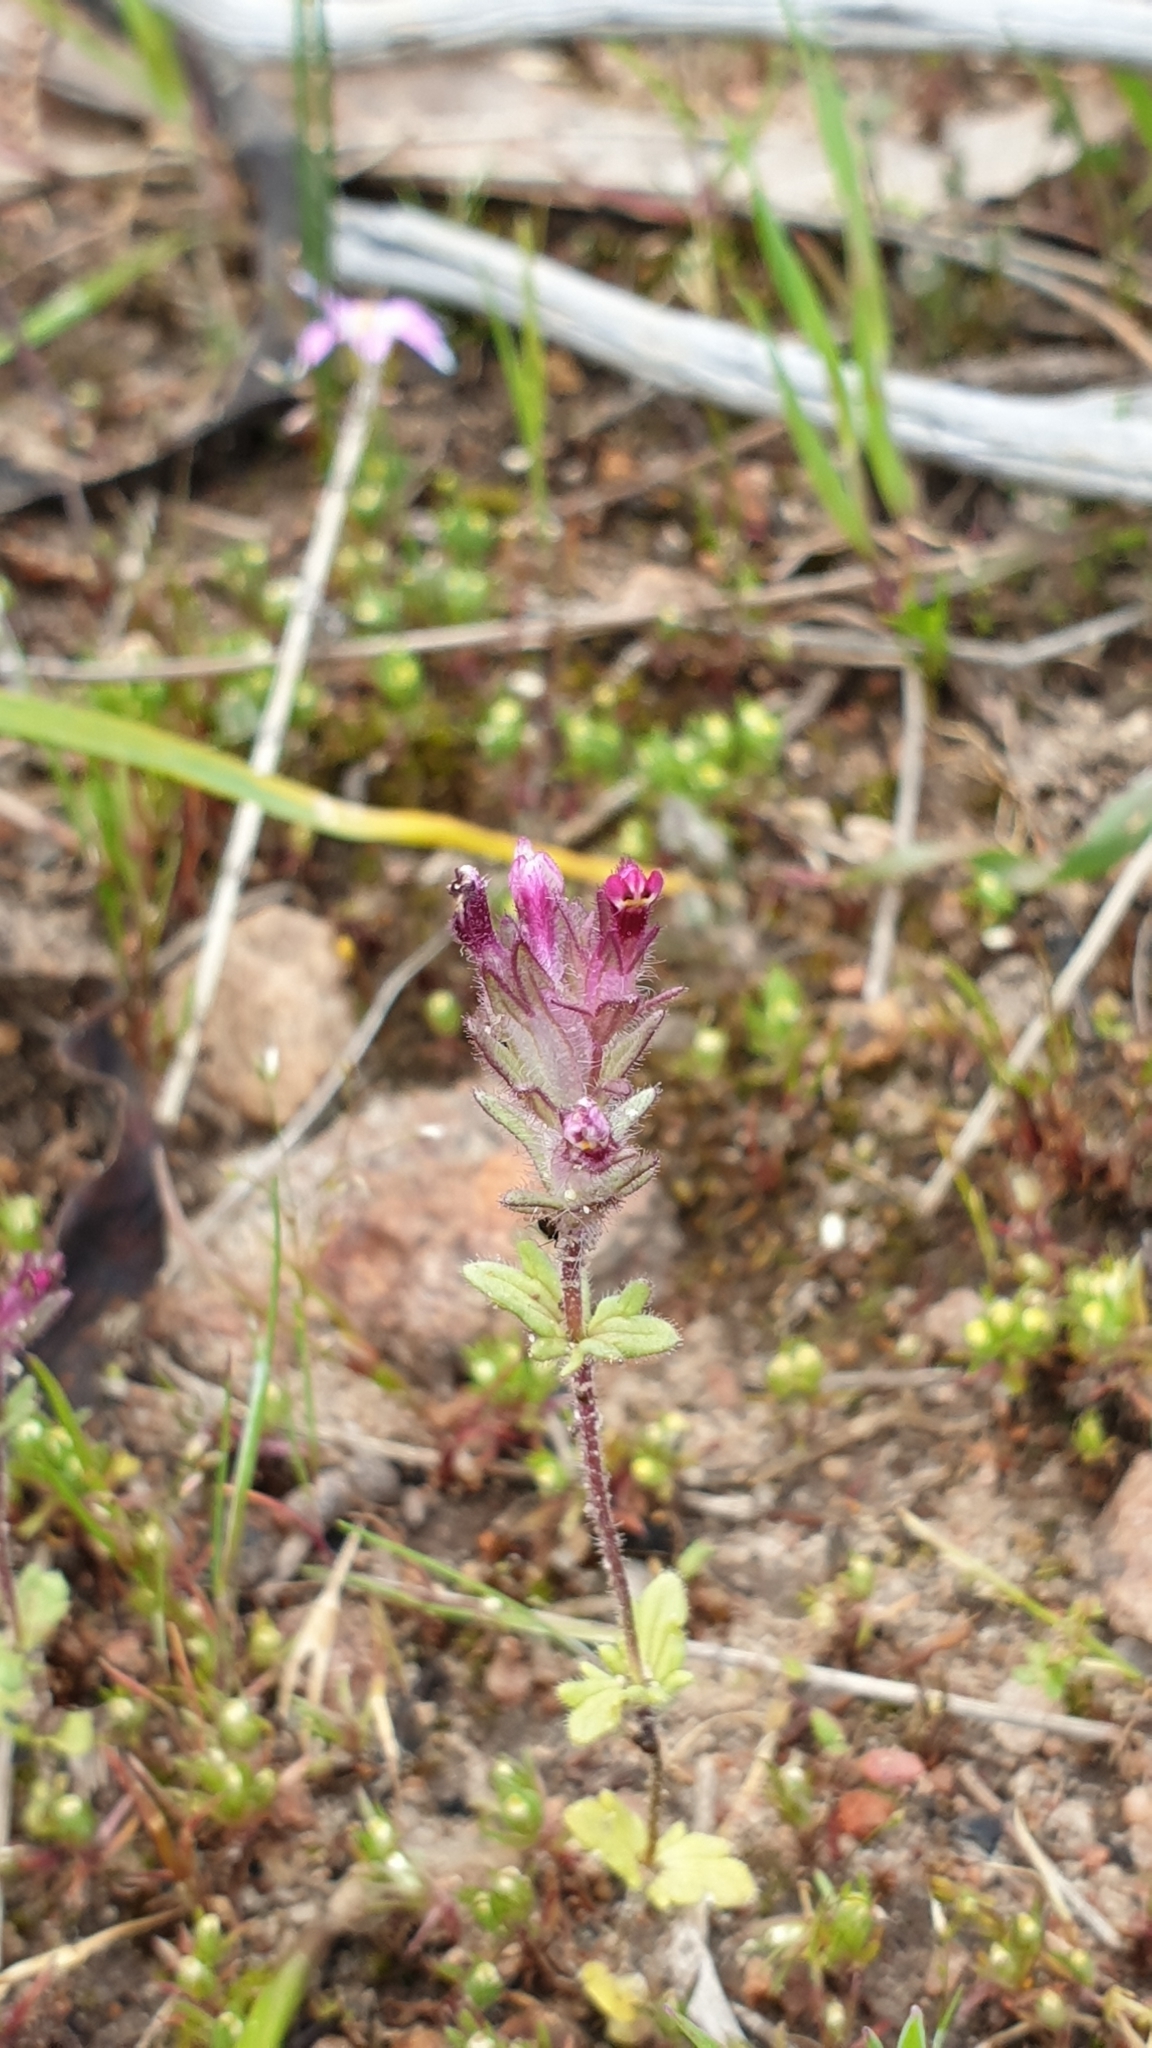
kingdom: Plantae
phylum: Tracheophyta
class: Magnoliopsida
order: Lamiales
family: Orobanchaceae
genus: Parentucellia
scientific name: Parentucellia latifolia
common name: Broadleaf glandweed
